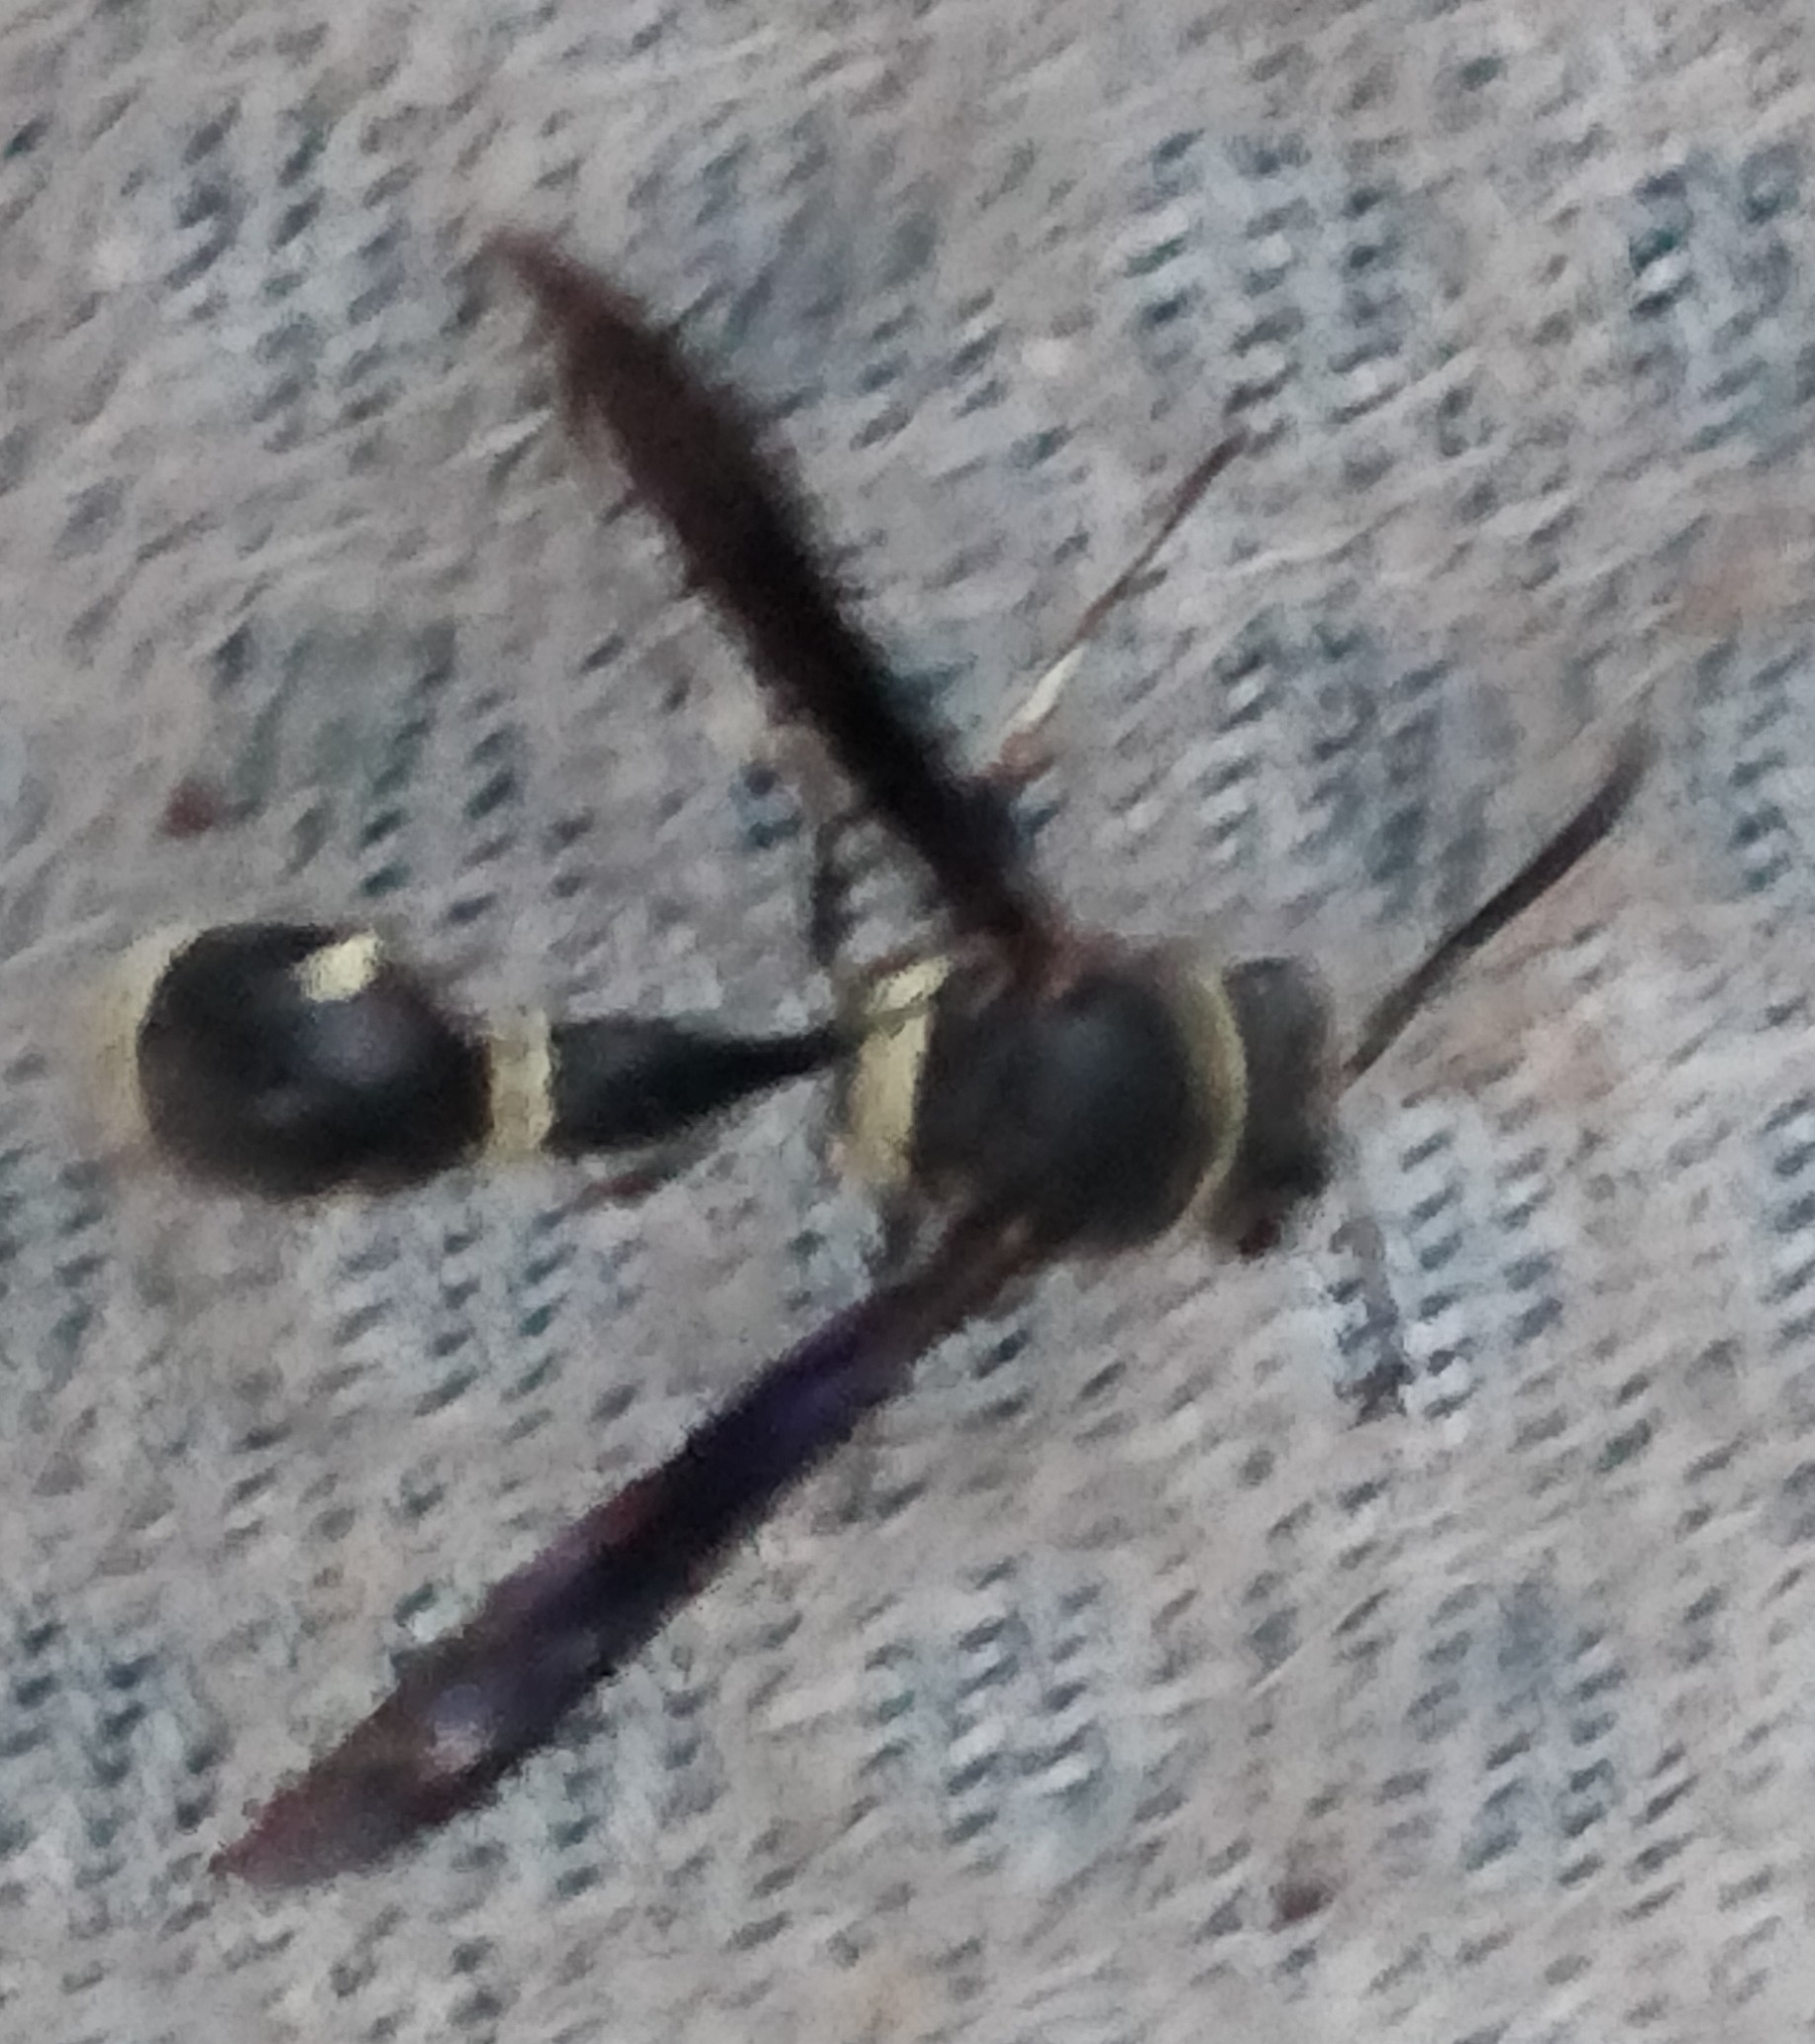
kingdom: Animalia
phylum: Arthropoda
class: Insecta
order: Hymenoptera
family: Vespidae
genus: Eumenes
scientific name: Eumenes fraternus
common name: Fraternal potter wasp
